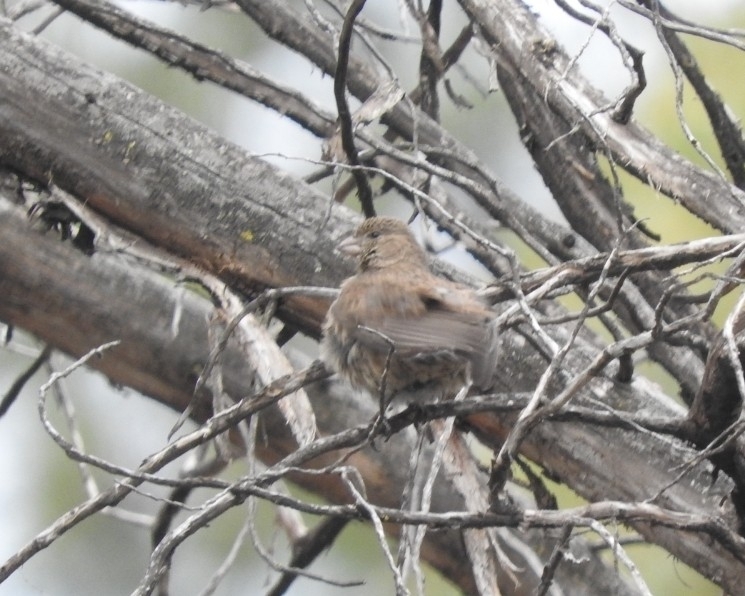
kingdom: Animalia
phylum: Chordata
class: Aves
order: Passeriformes
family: Passerellidae
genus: Melozone
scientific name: Melozone fusca
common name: Canyon towhee
